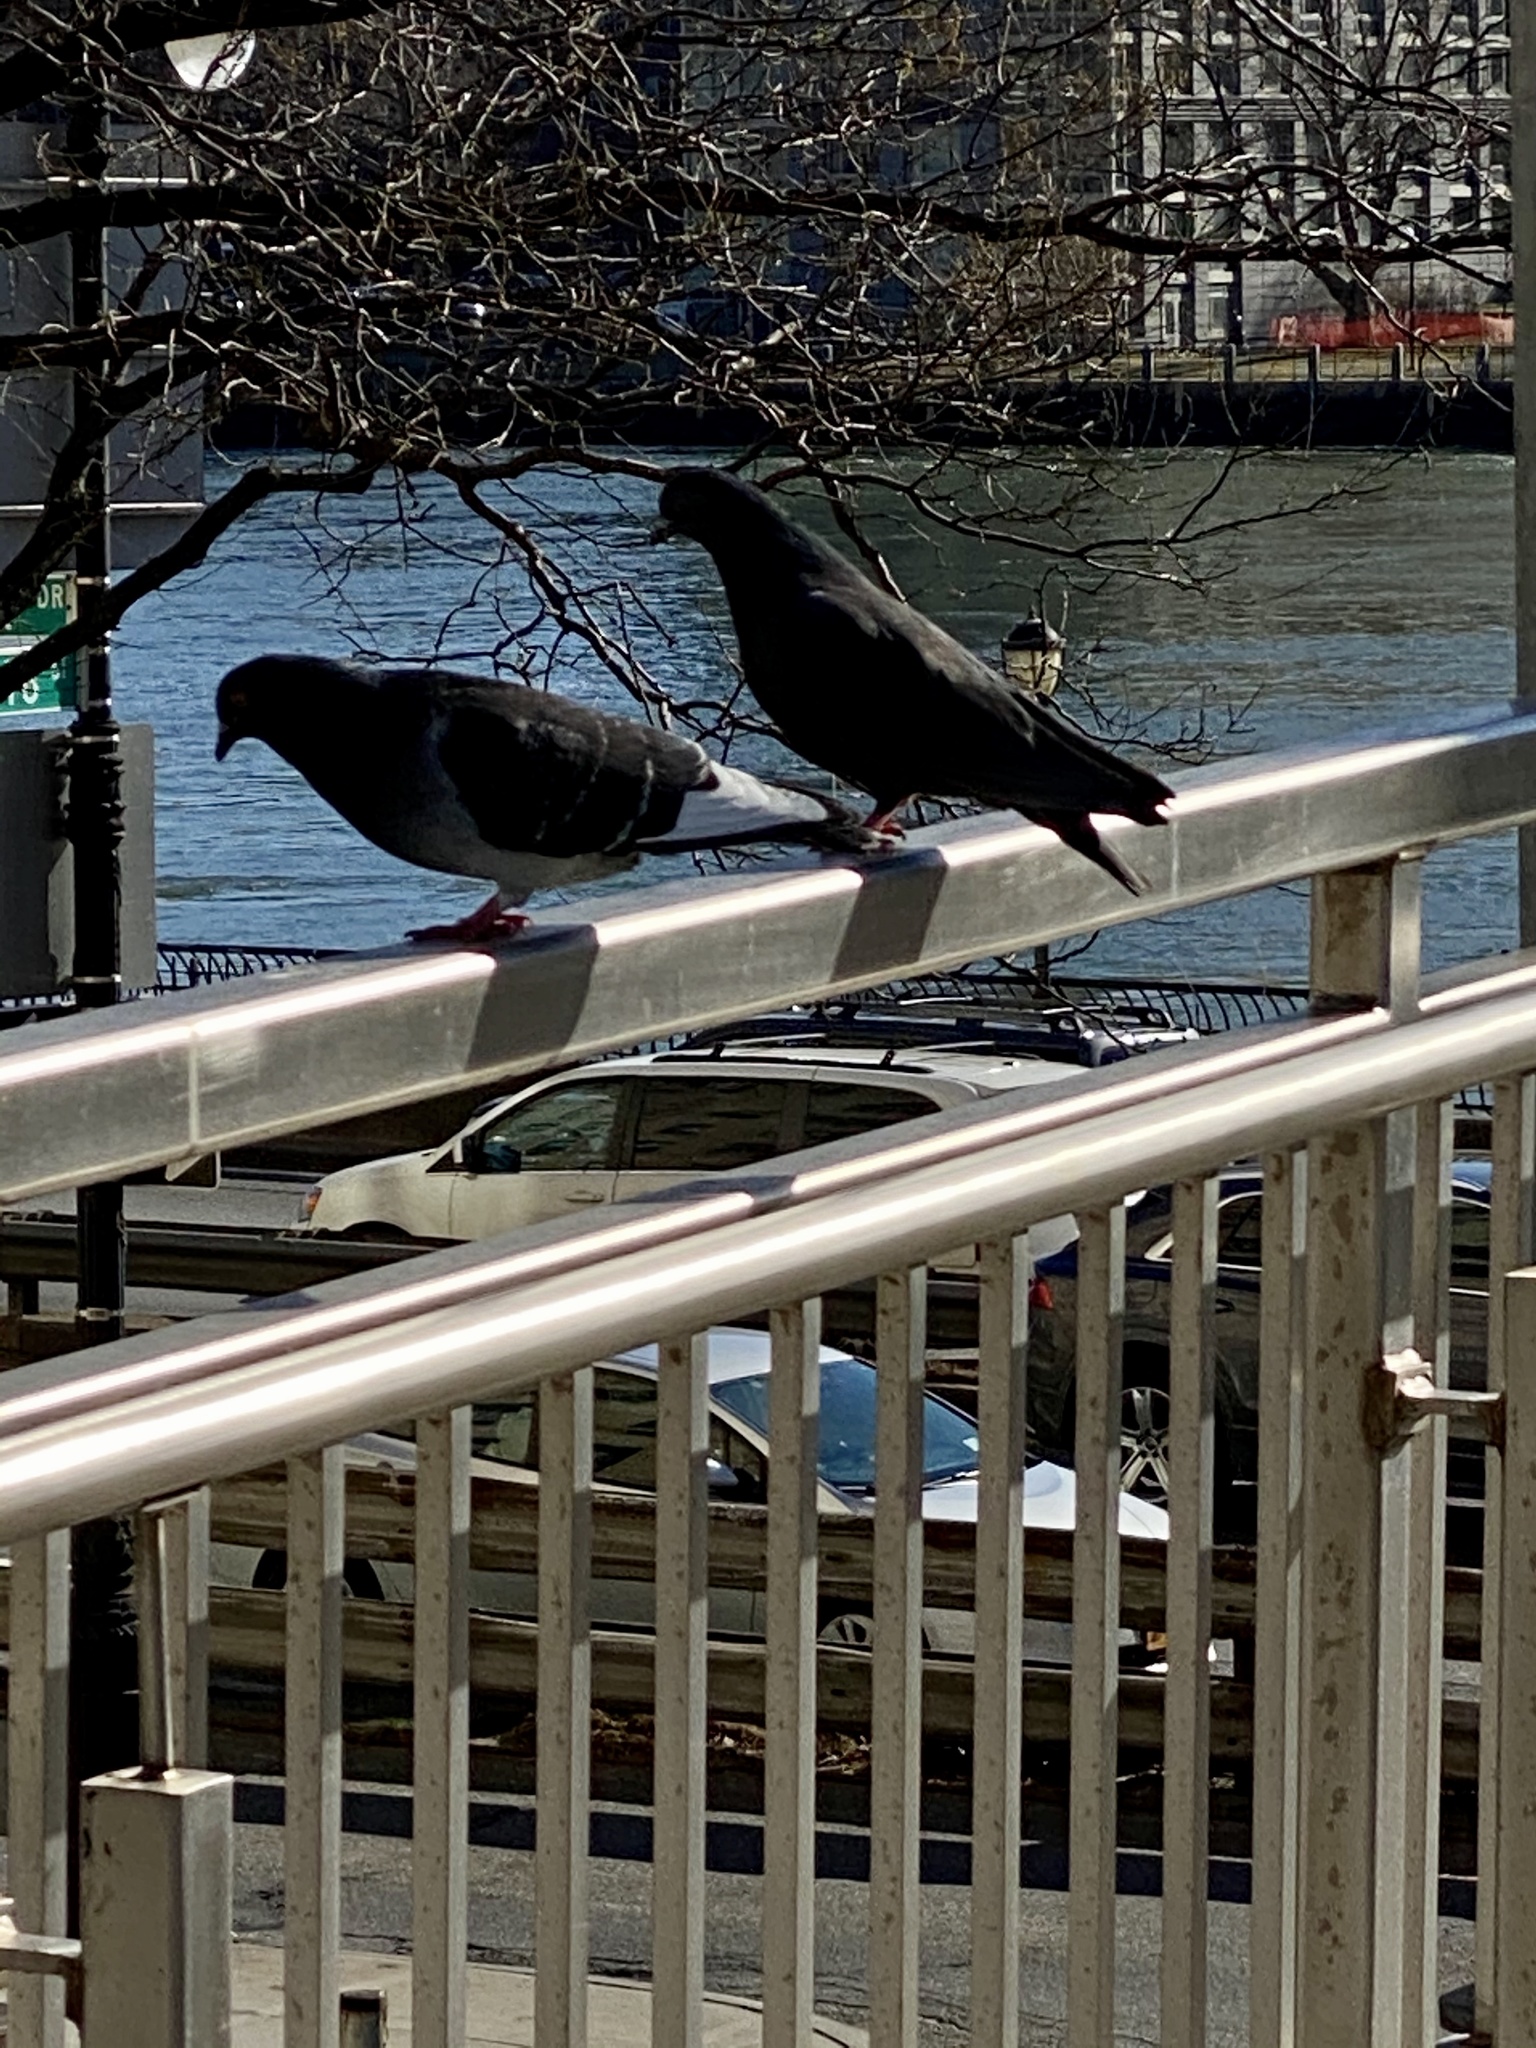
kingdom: Animalia
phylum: Chordata
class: Aves
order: Columbiformes
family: Columbidae
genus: Columba
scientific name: Columba livia
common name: Rock pigeon
